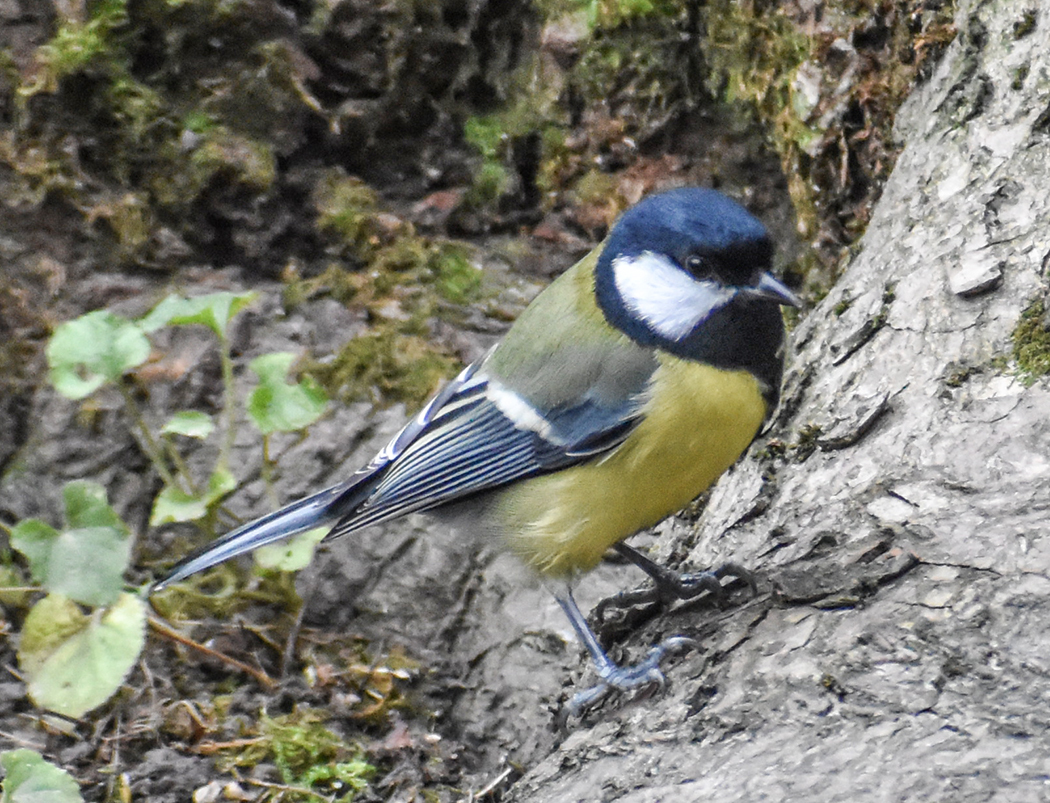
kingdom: Animalia
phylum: Chordata
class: Aves
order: Passeriformes
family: Paridae
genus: Parus
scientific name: Parus major
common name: Great tit
